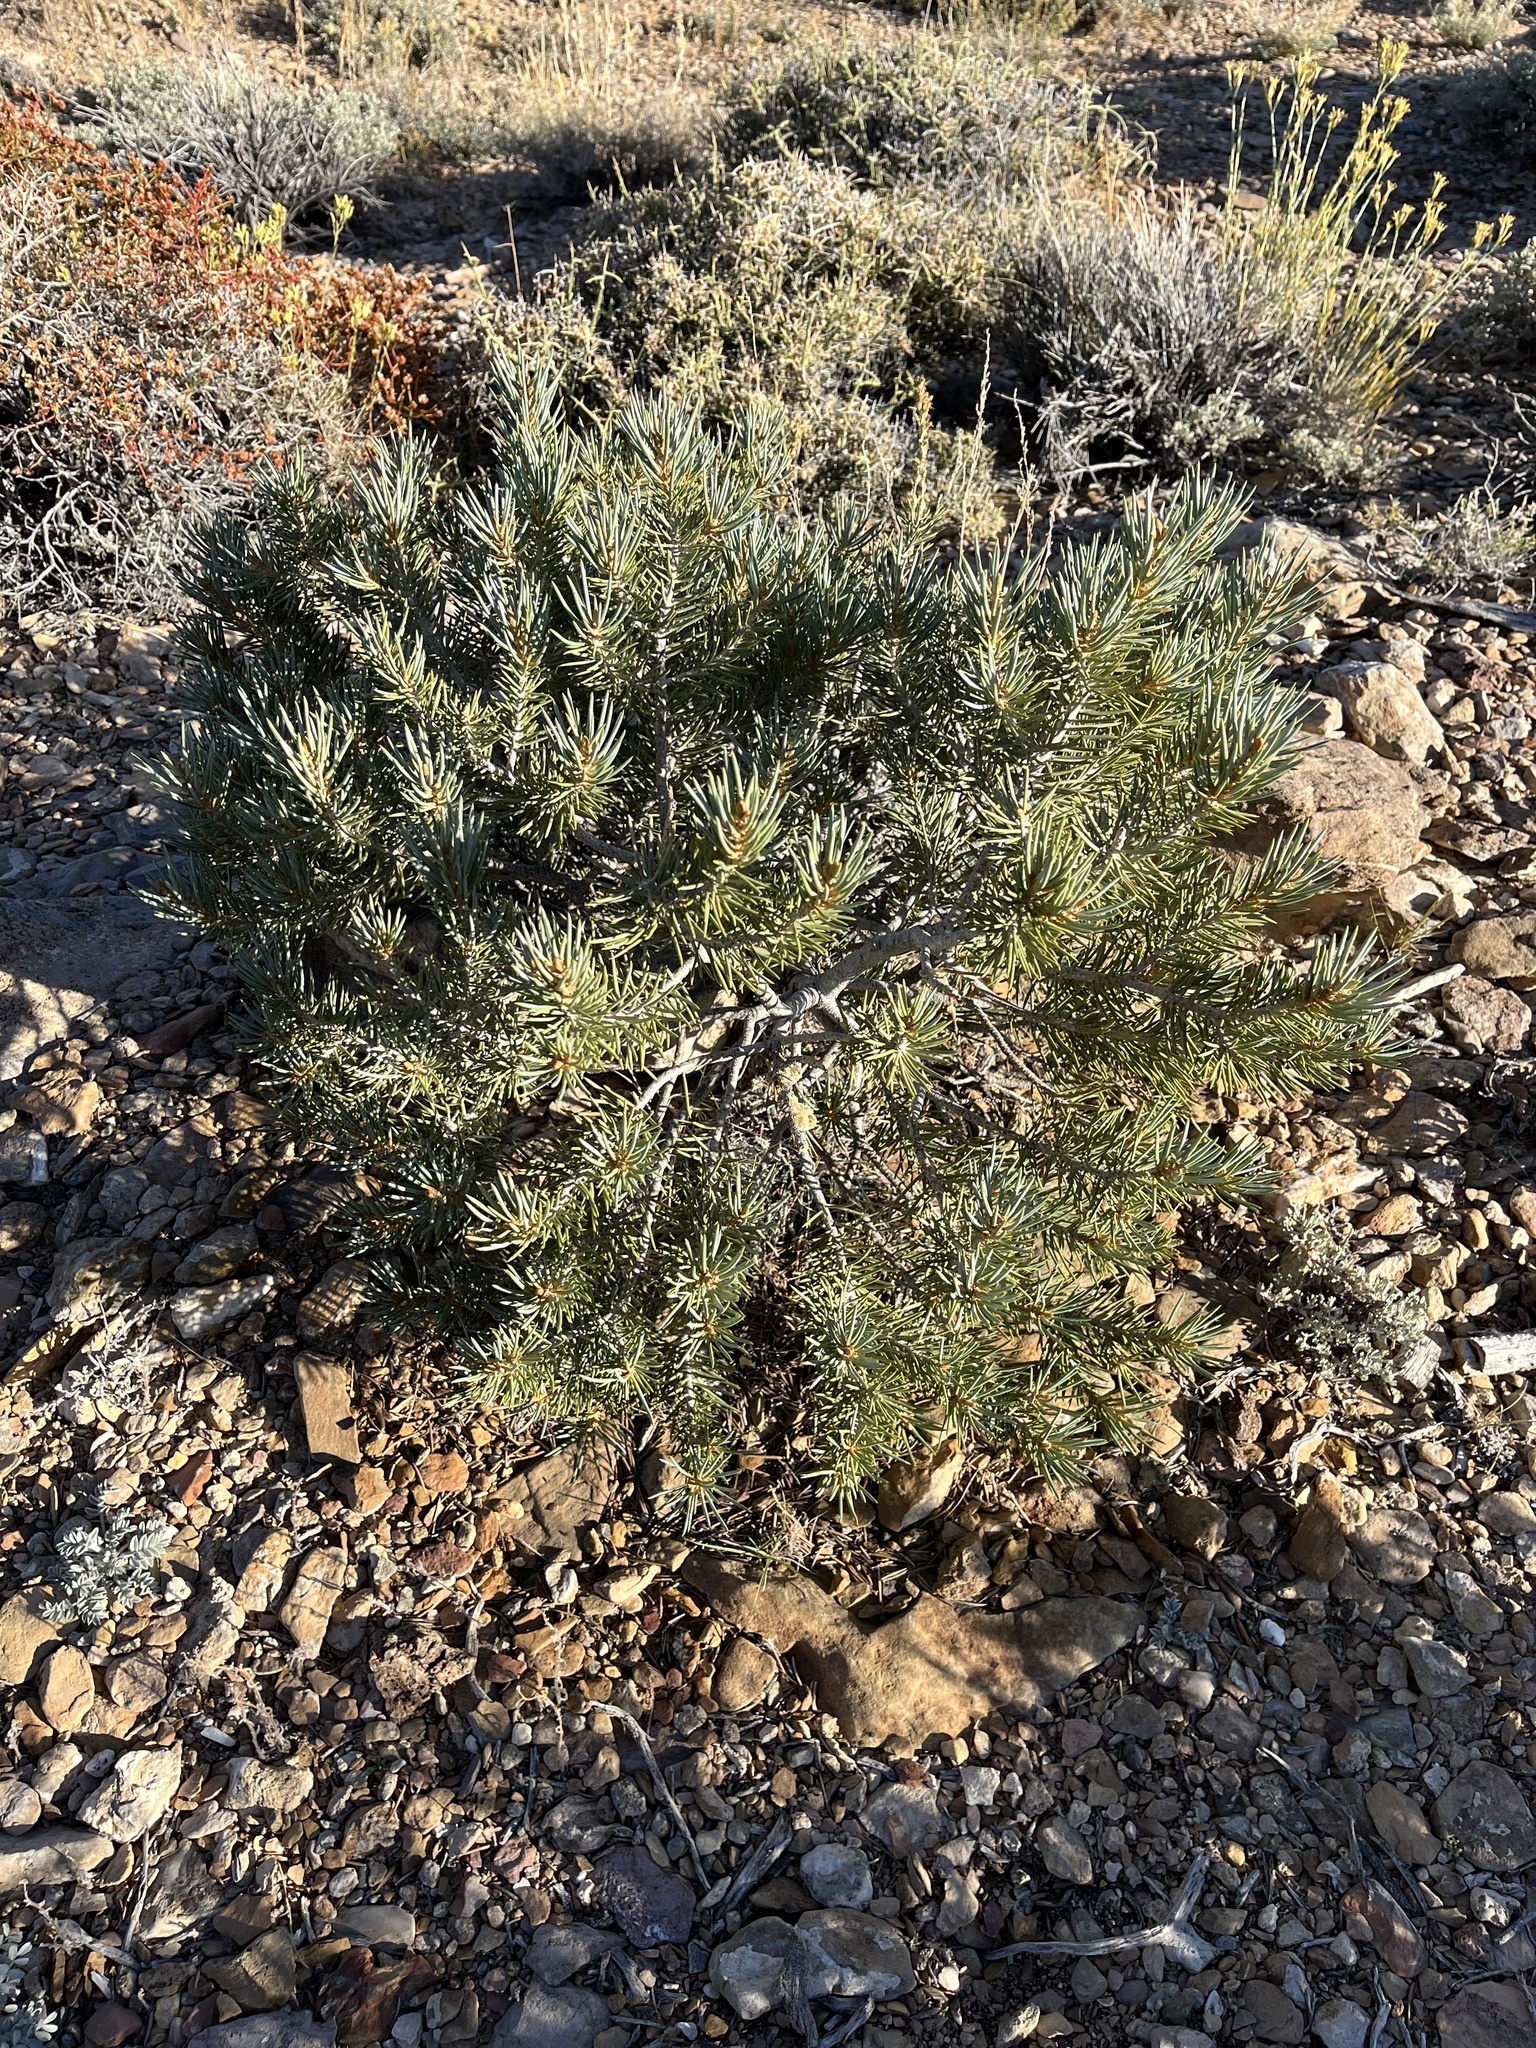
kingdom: Plantae
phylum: Tracheophyta
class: Pinopsida
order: Pinales
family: Pinaceae
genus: Pinus
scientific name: Pinus monophylla
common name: One-leaved nut pine
